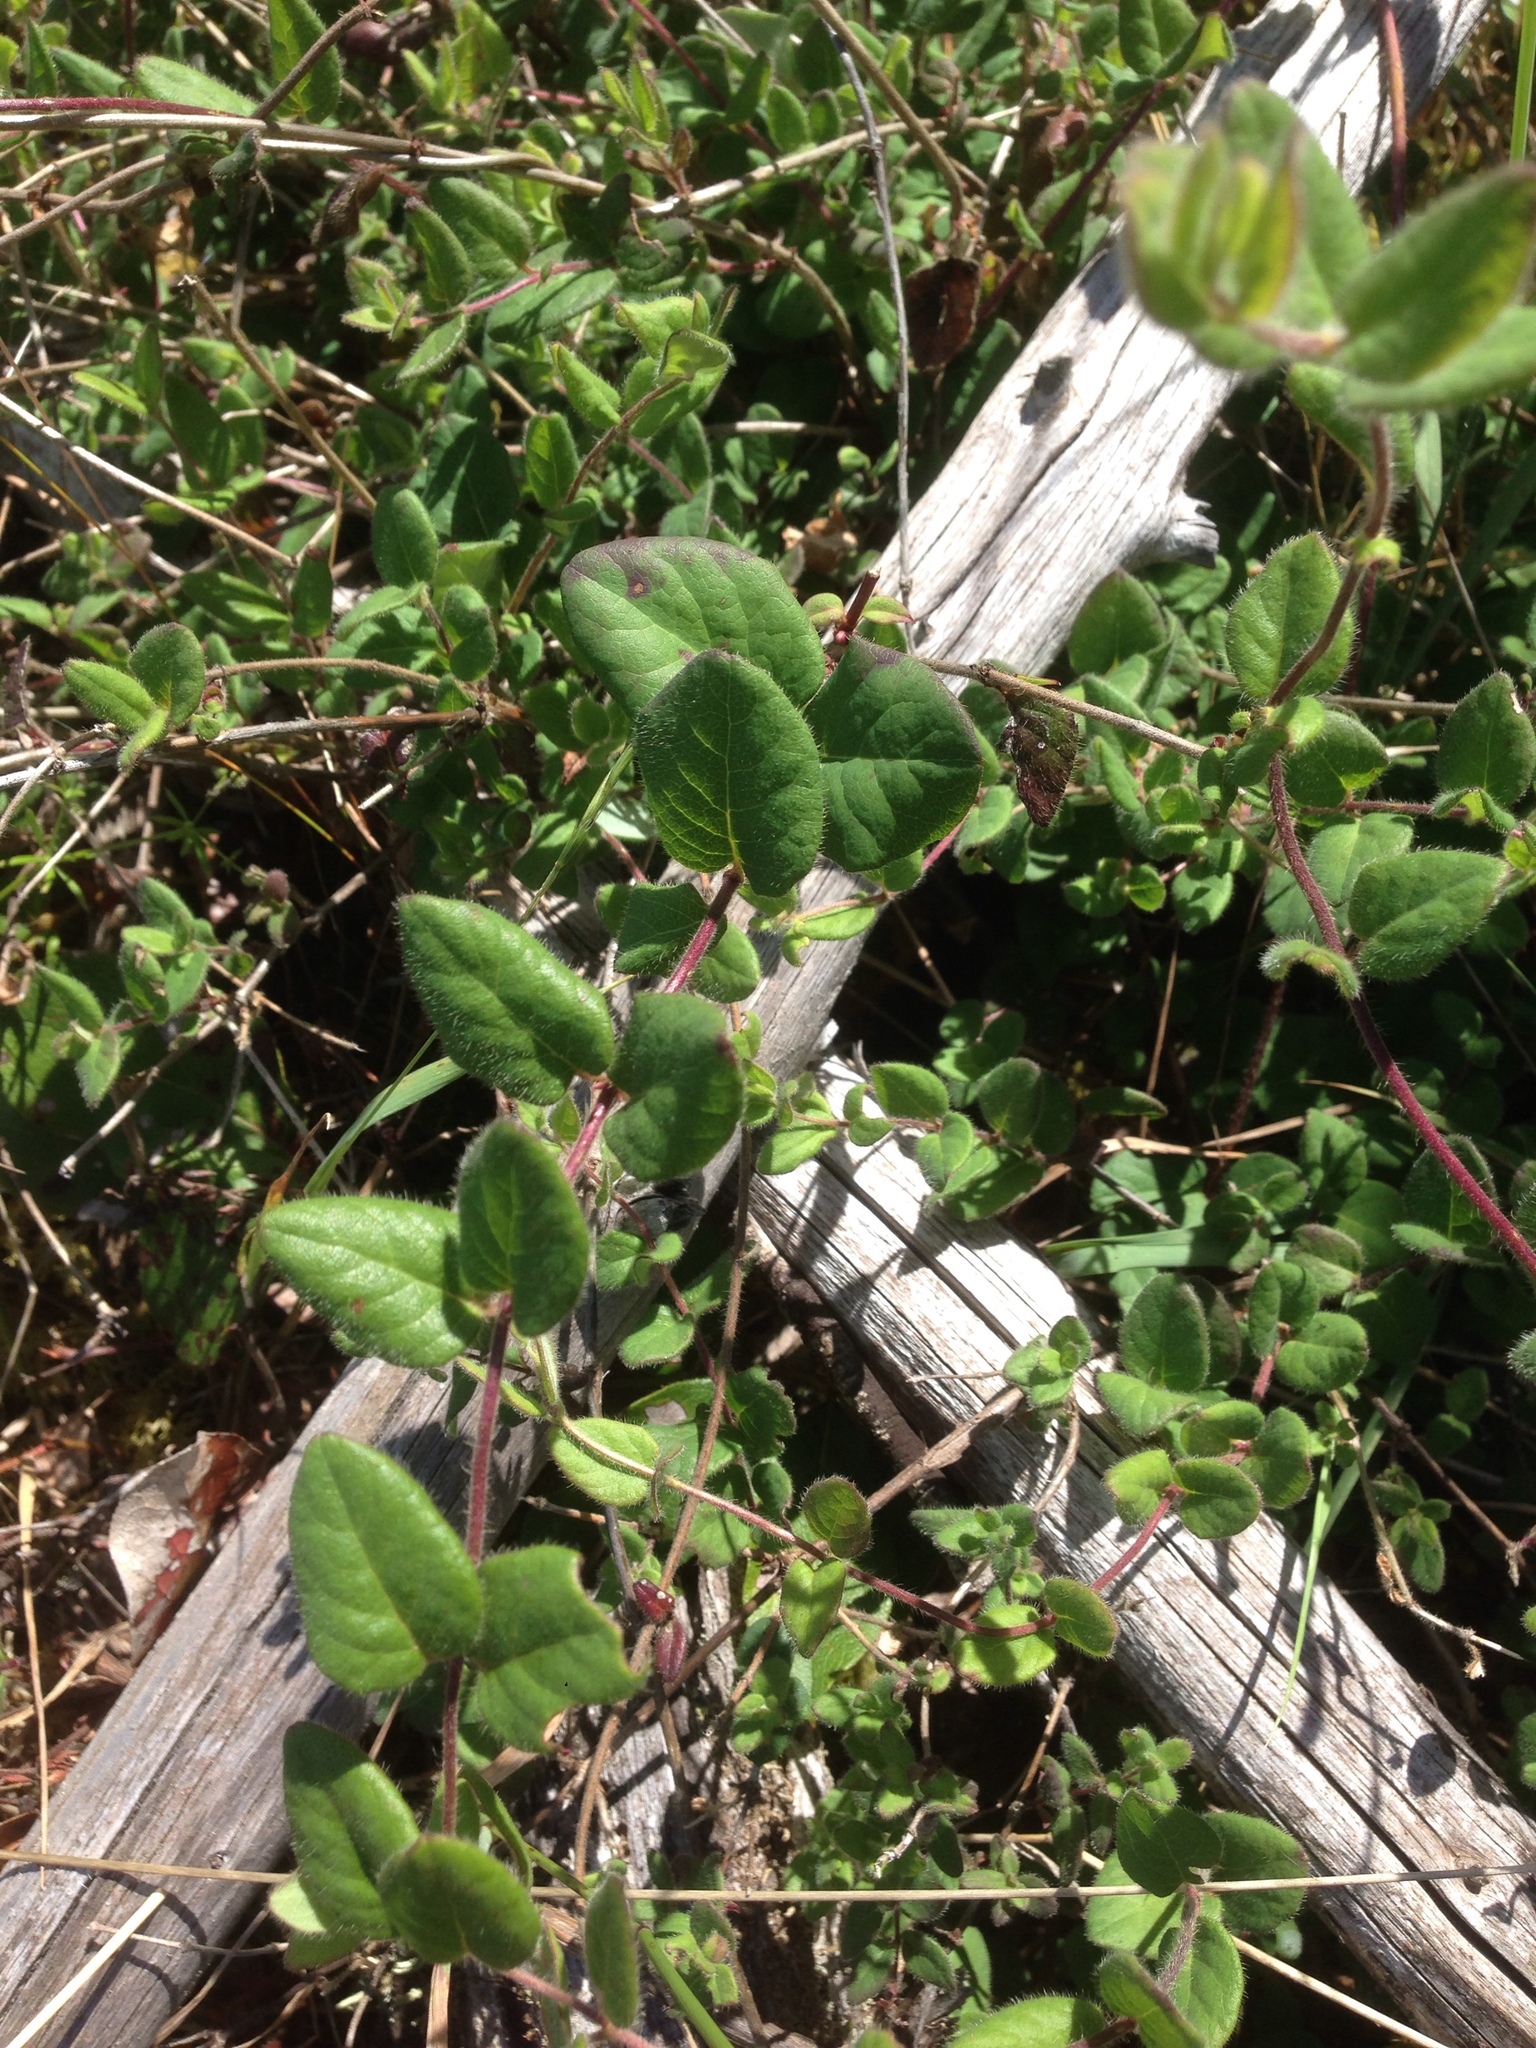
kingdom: Plantae
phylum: Tracheophyta
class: Magnoliopsida
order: Dipsacales
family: Caprifoliaceae
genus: Lonicera
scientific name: Lonicera hispidula
